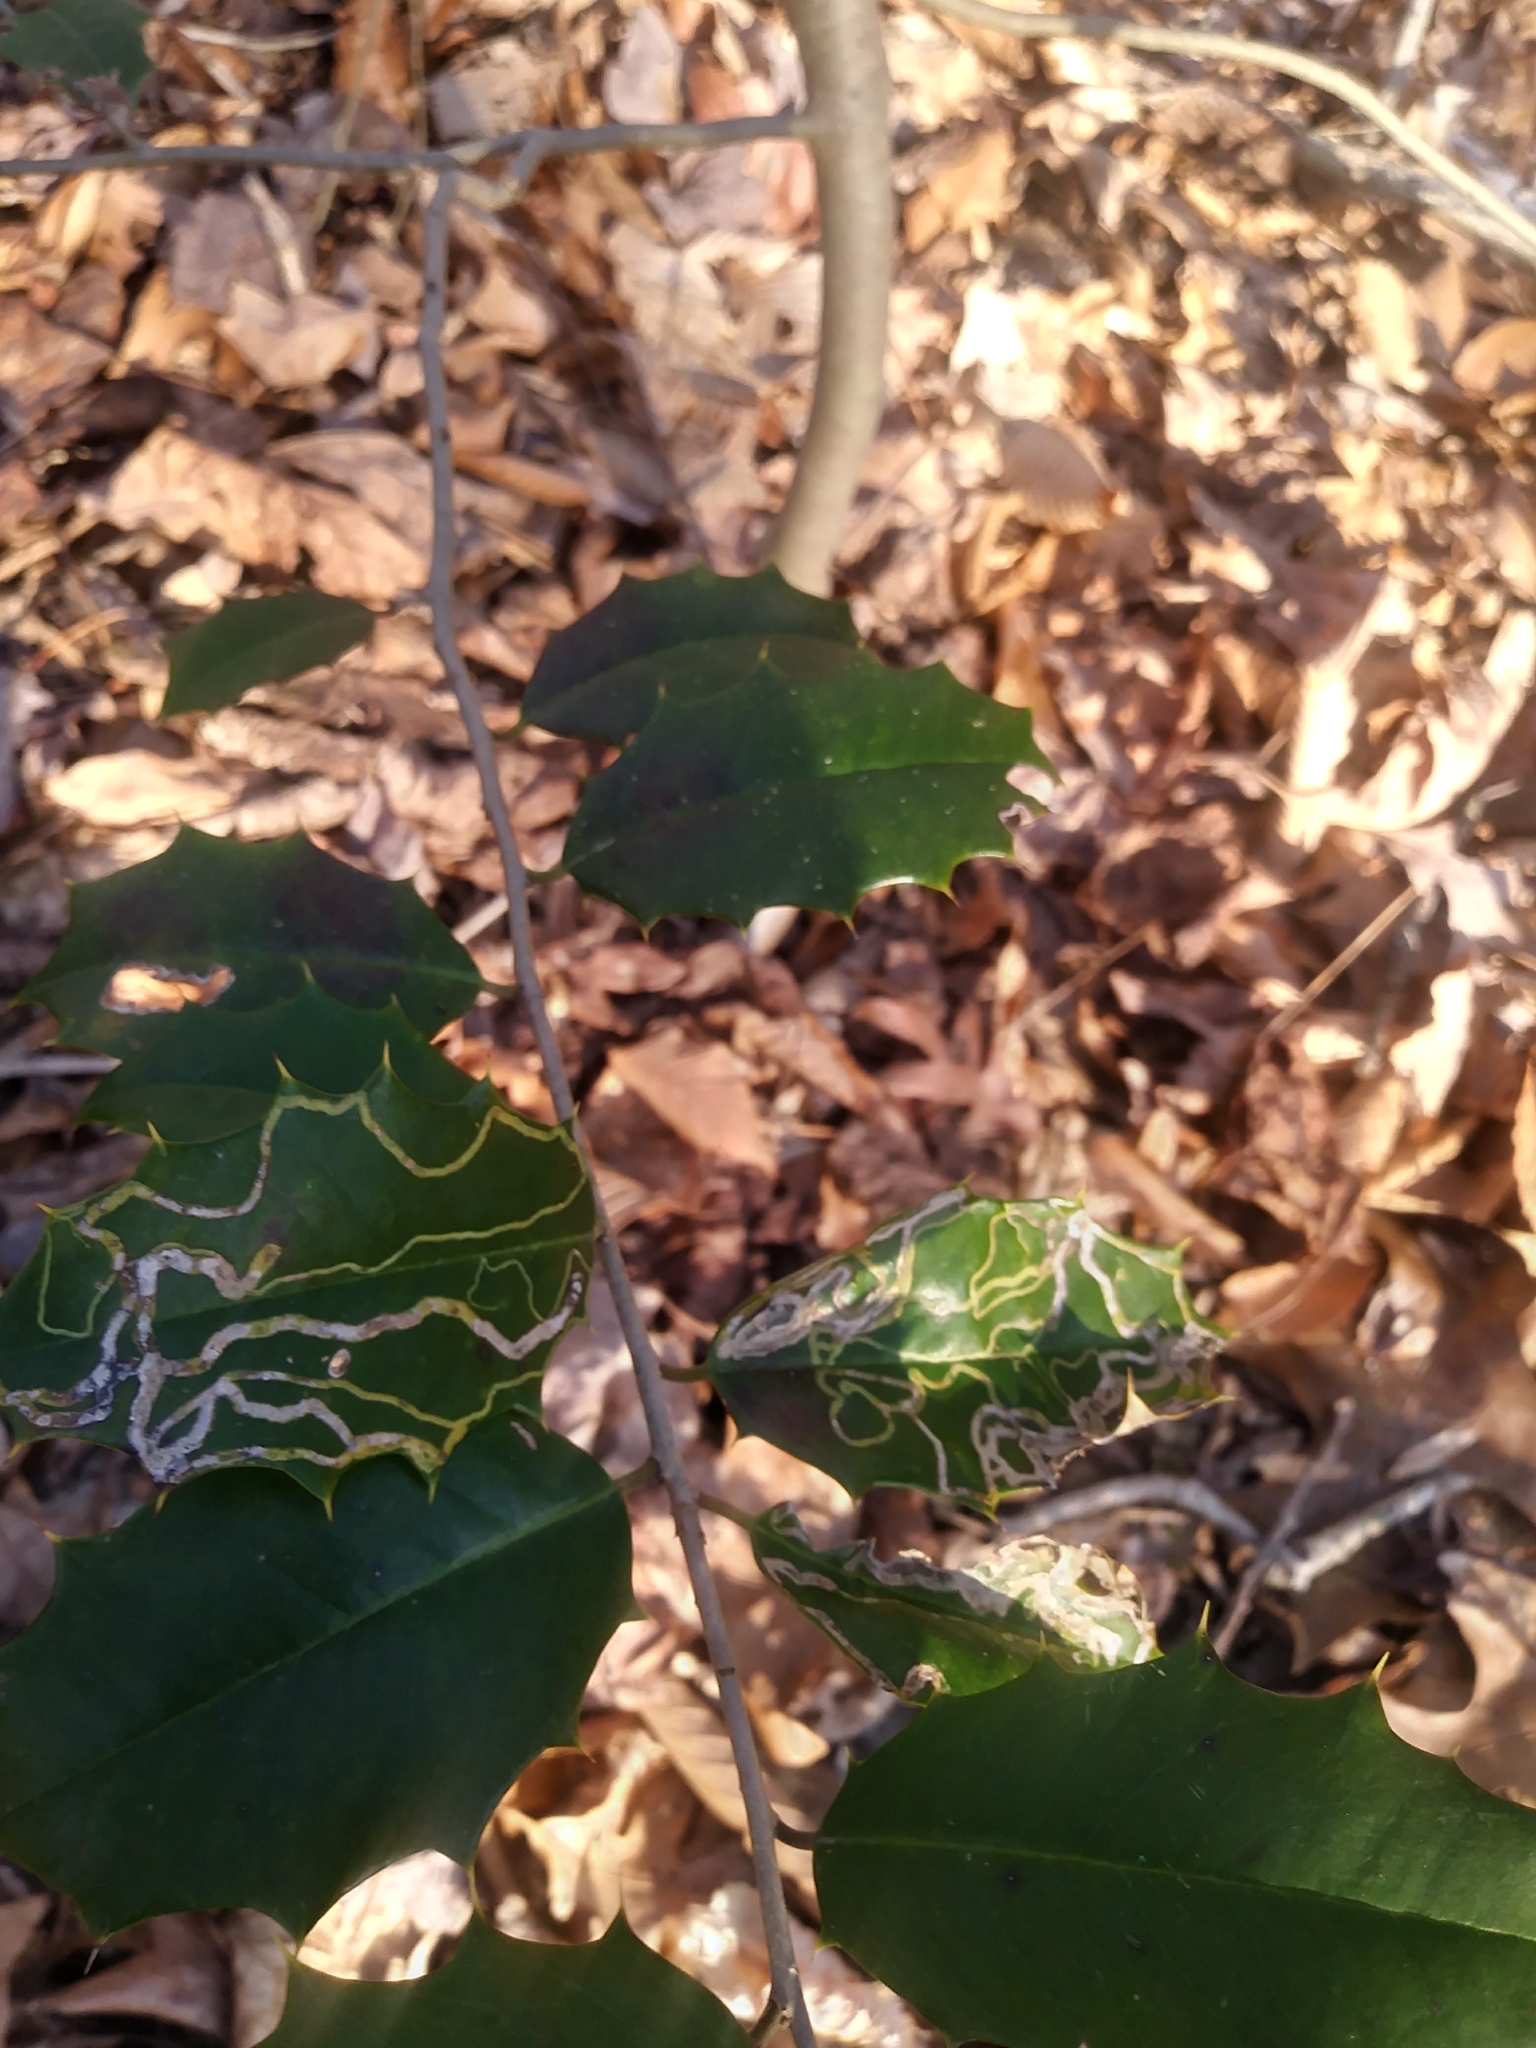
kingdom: Animalia
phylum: Arthropoda
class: Insecta
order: Diptera
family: Agromyzidae
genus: Phytomyza
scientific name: Phytomyza opacae
